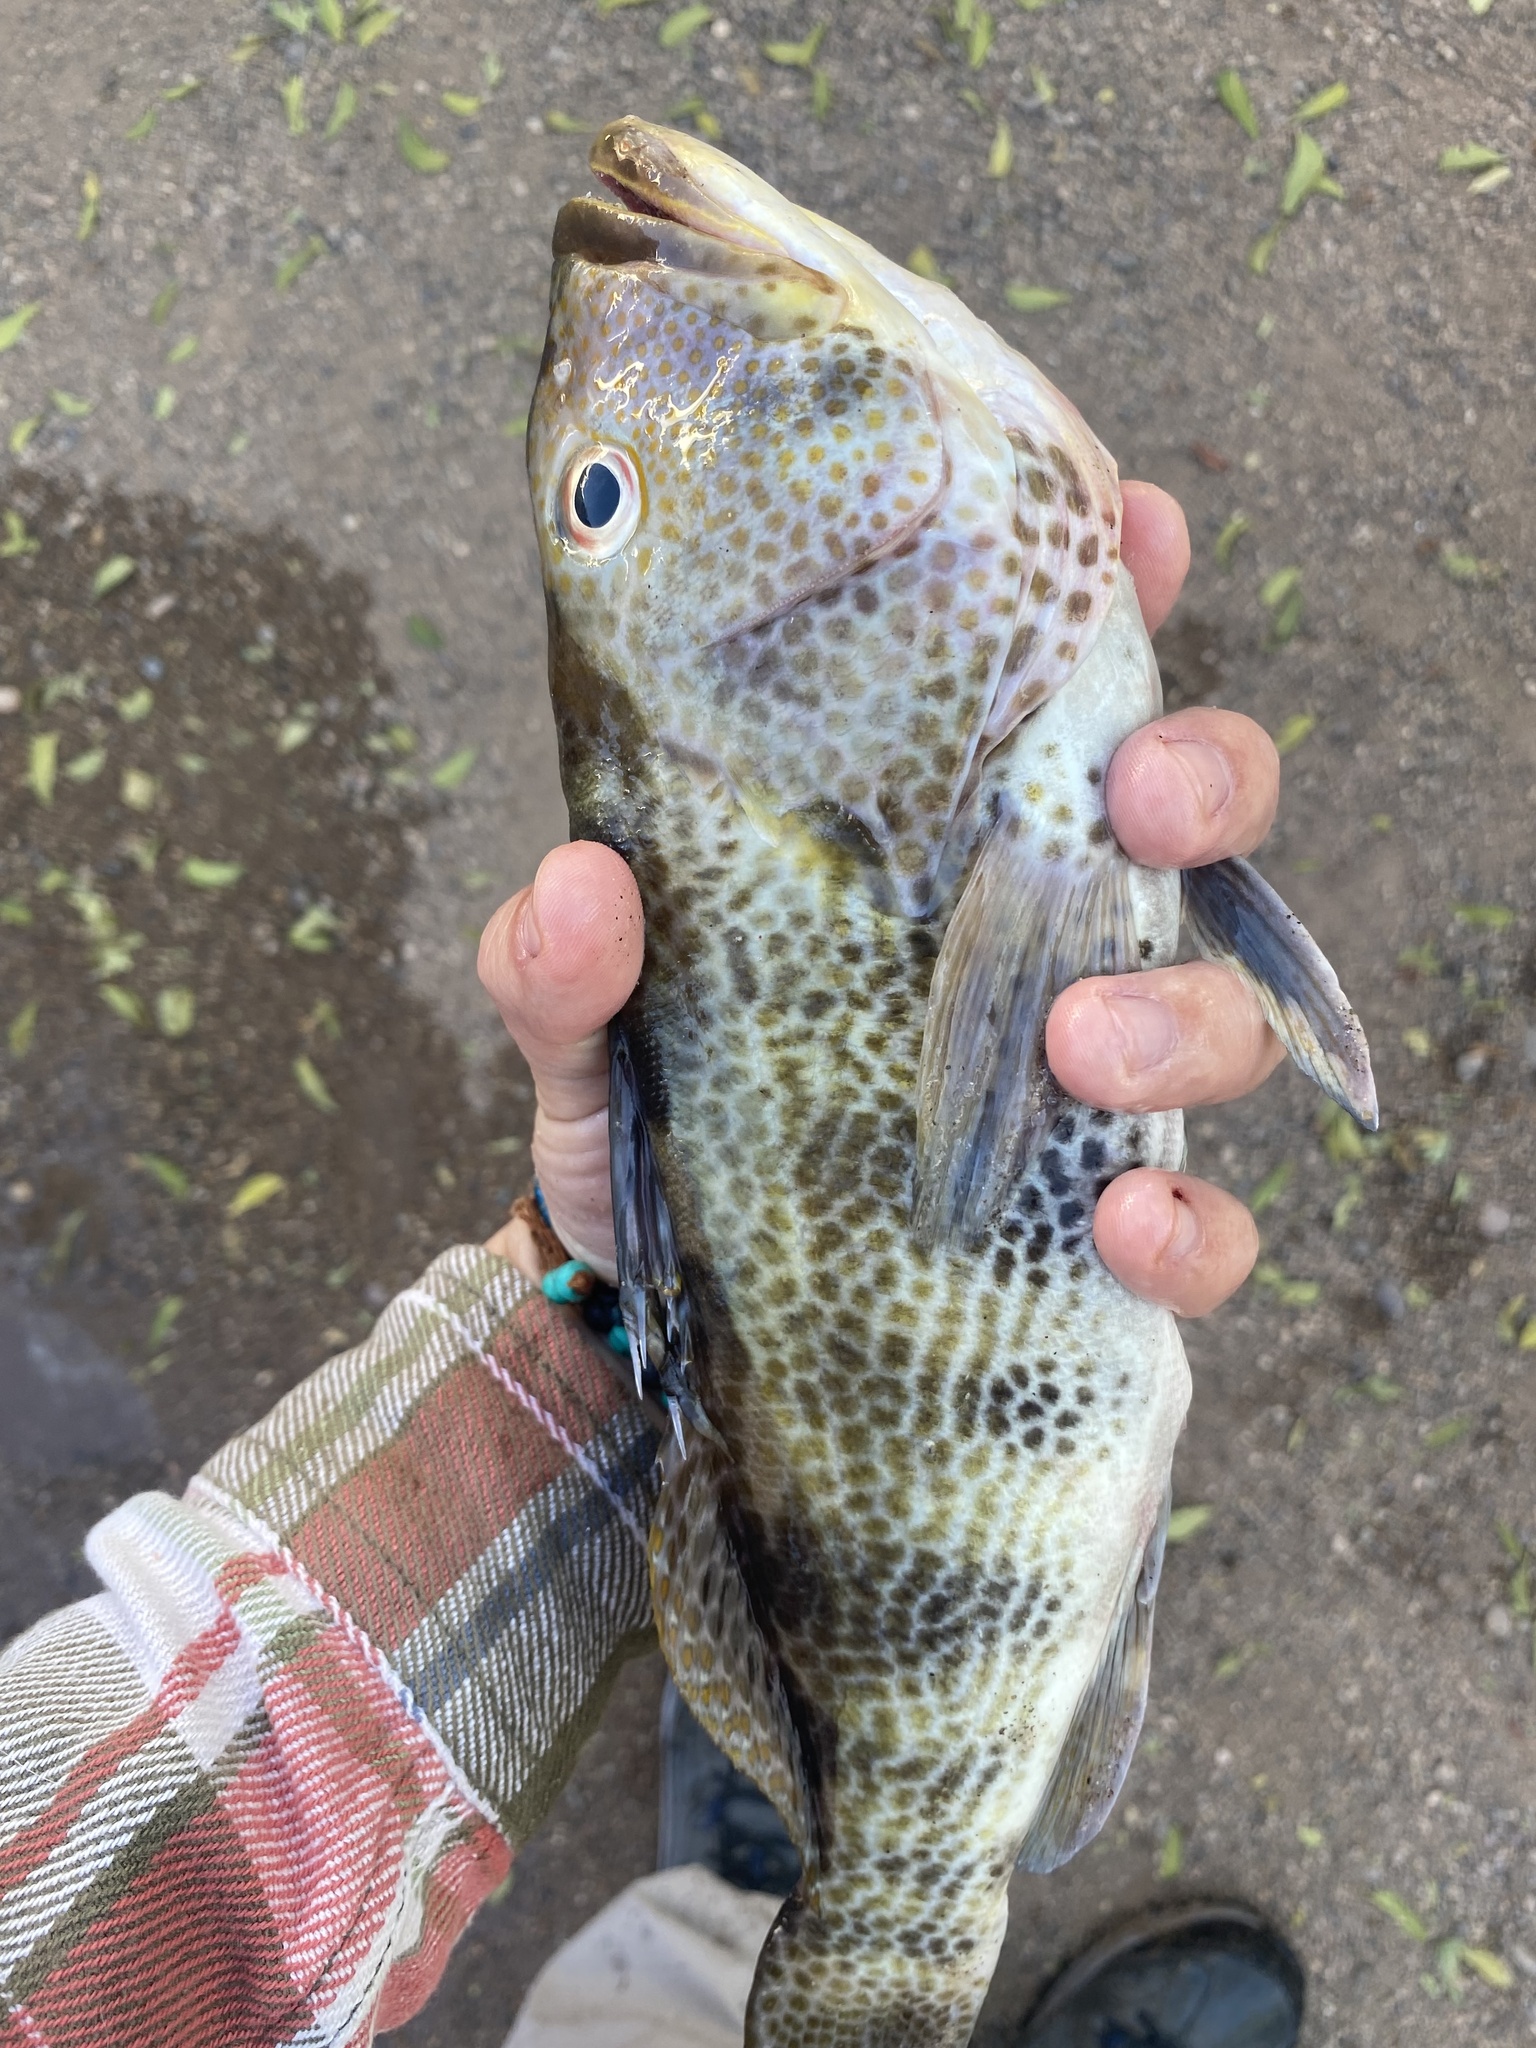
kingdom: Animalia
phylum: Chordata
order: Perciformes
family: Serranidae
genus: Paralabrax
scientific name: Paralabrax maculatofasciatus
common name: Spotted sand bass
